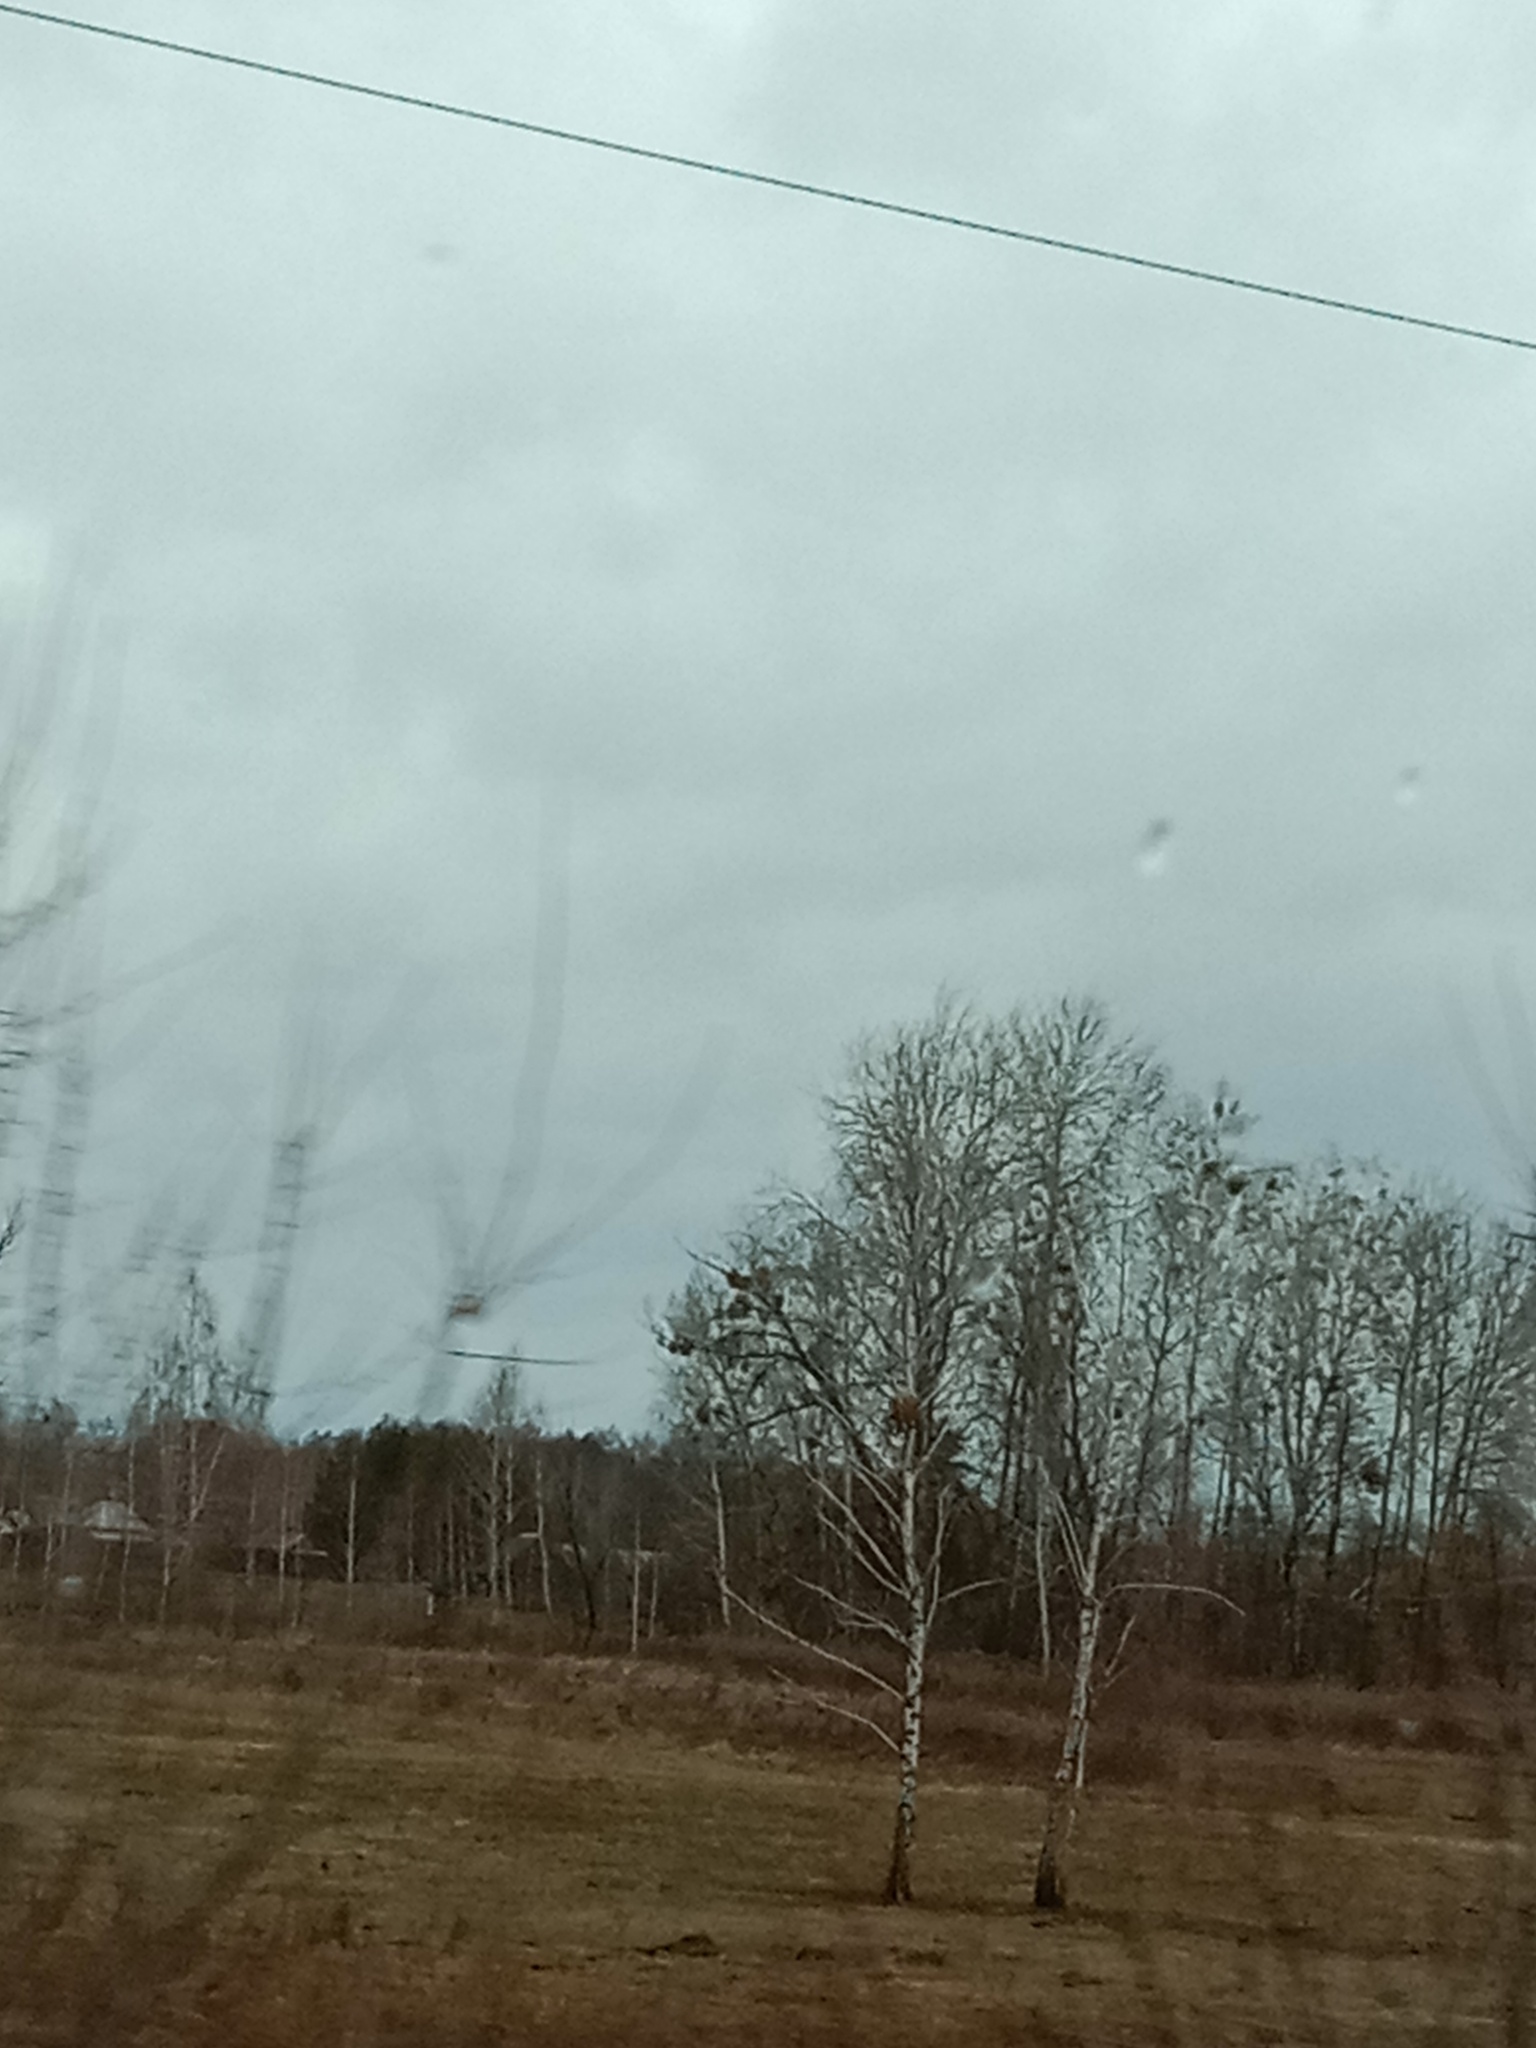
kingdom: Plantae
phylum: Tracheophyta
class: Magnoliopsida
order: Santalales
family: Viscaceae
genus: Viscum
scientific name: Viscum album
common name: Mistletoe
